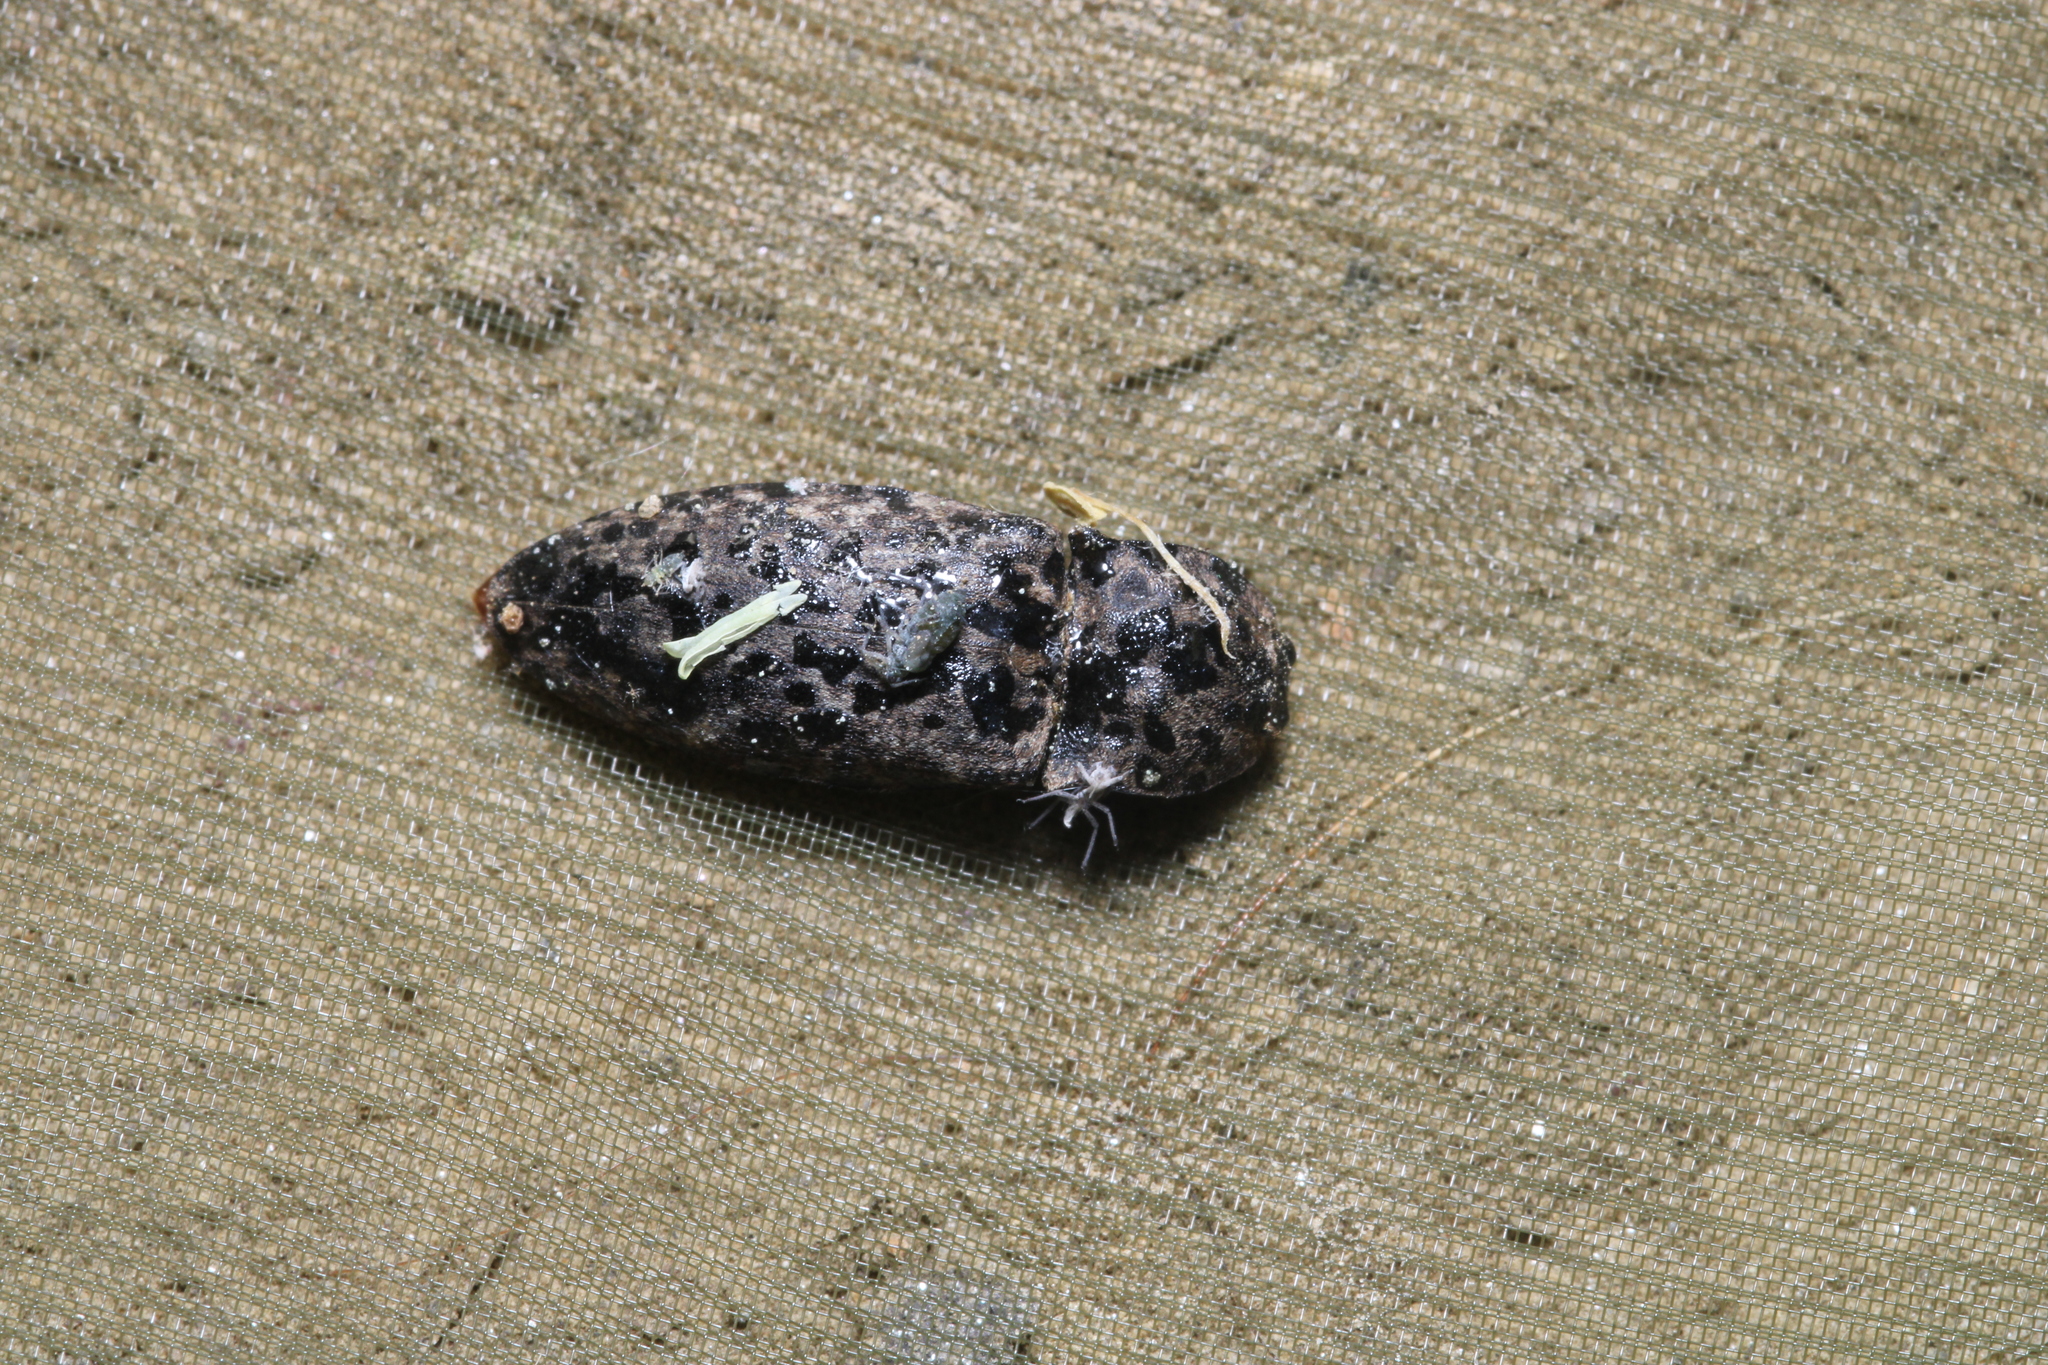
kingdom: Animalia
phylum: Arthropoda
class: Insecta
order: Coleoptera
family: Elateridae
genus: Agrypnus
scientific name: Agrypnus murinus
